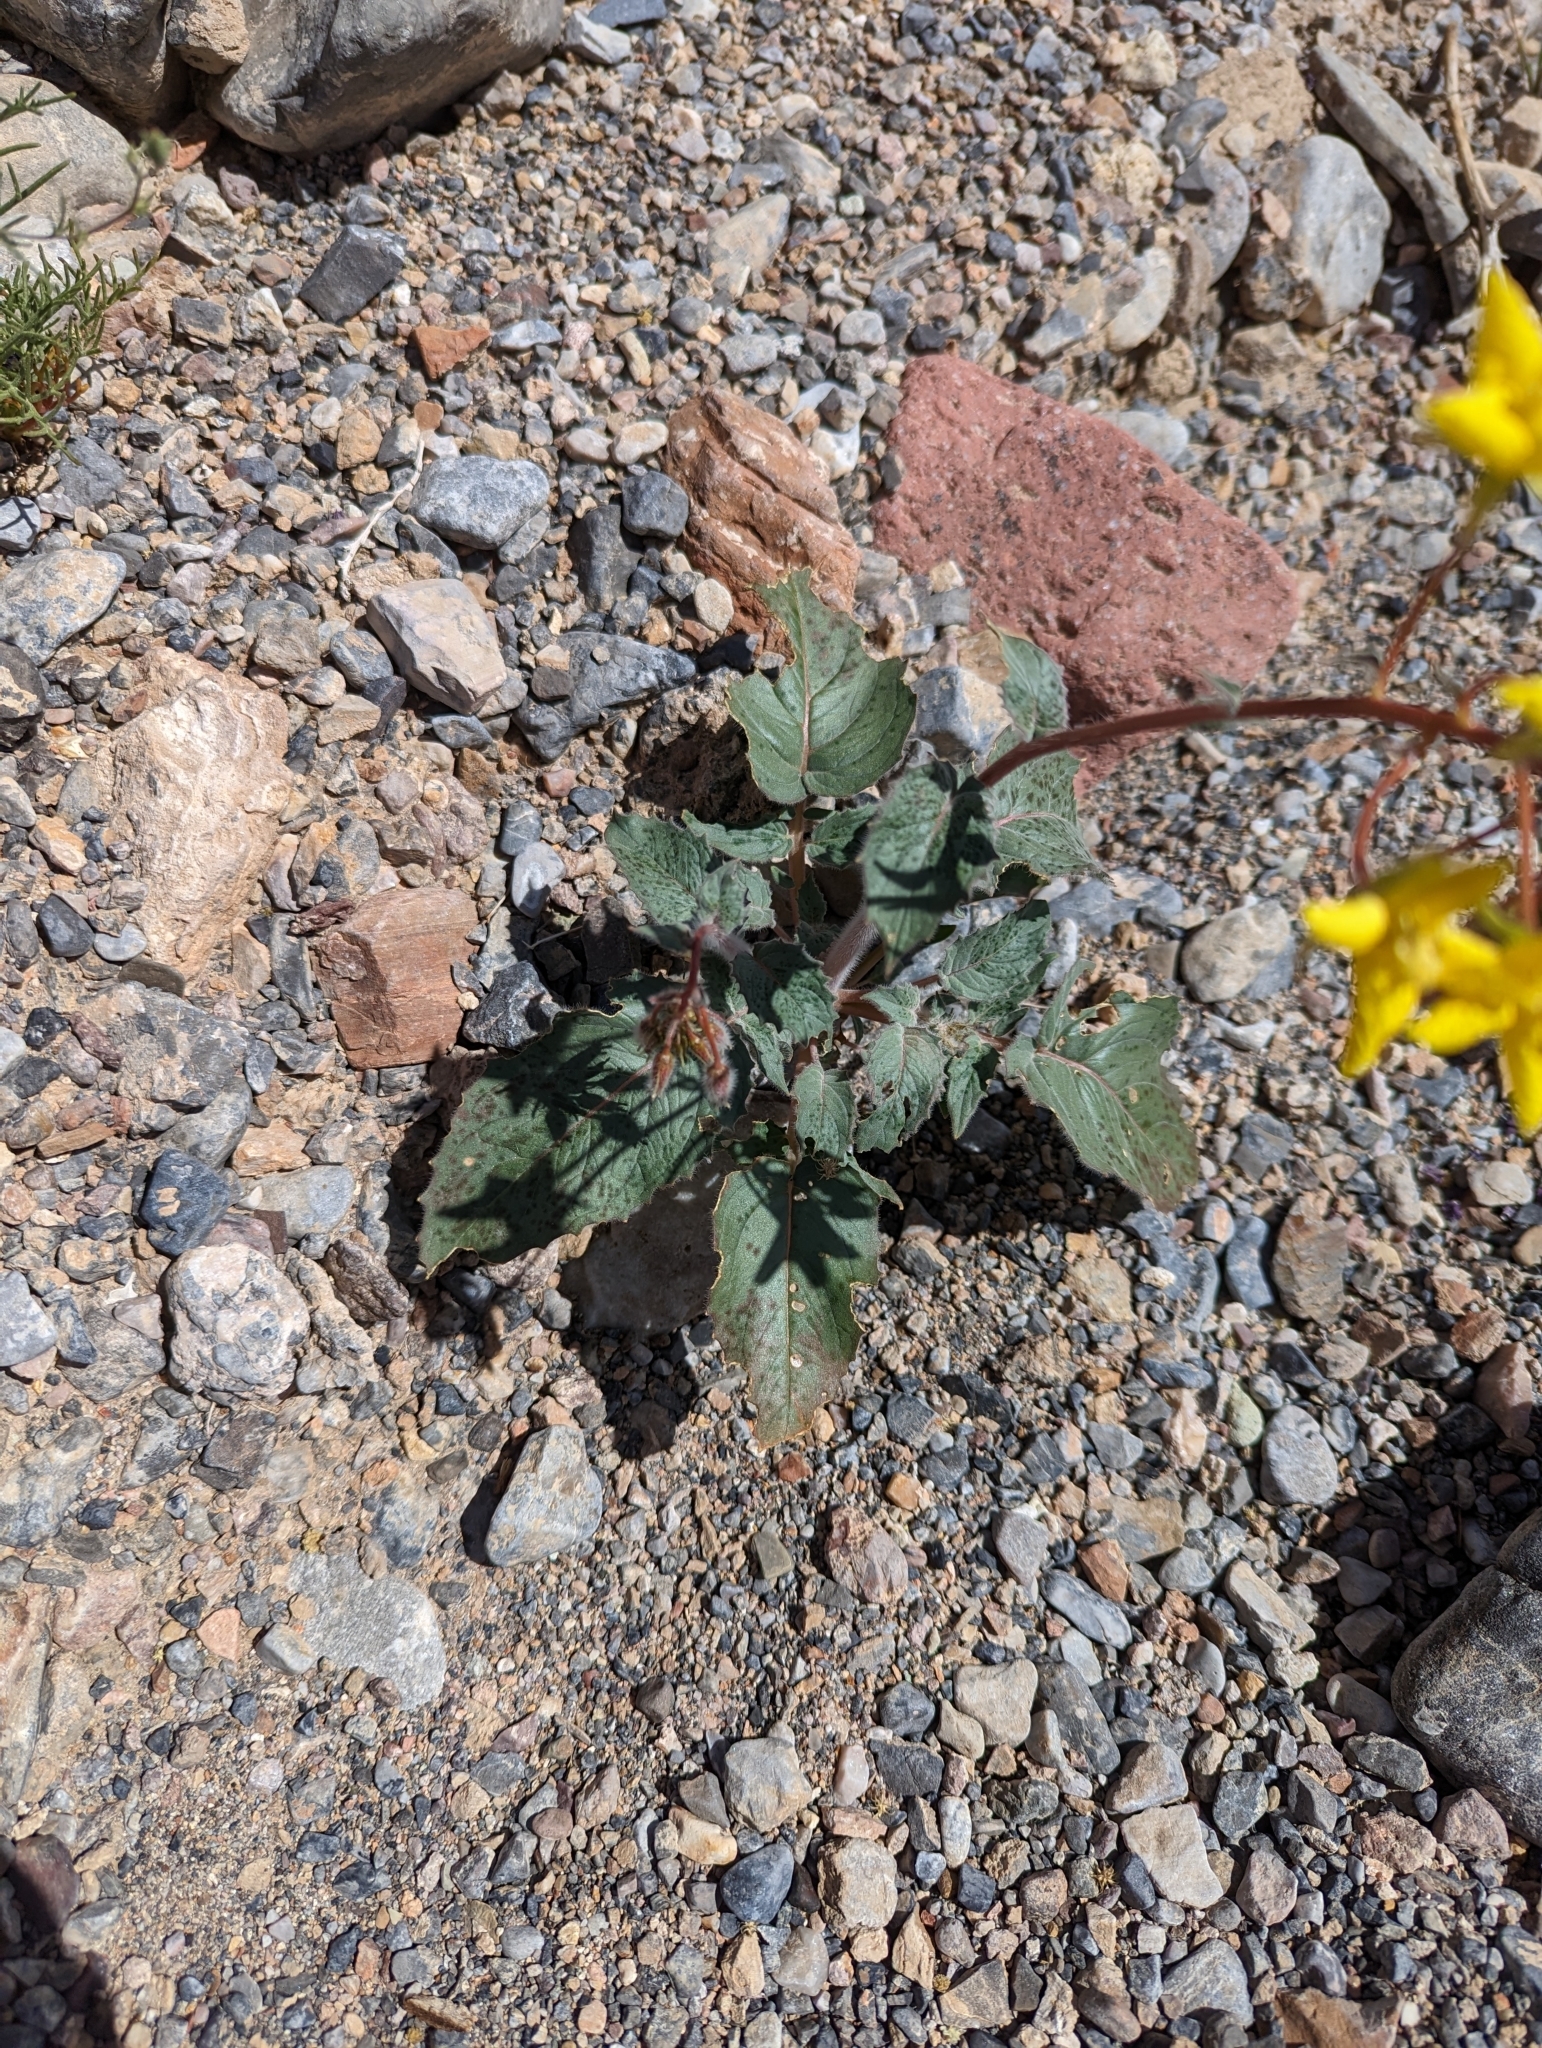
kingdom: Plantae
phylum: Tracheophyta
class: Magnoliopsida
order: Myrtales
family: Onagraceae
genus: Chylismia
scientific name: Chylismia brevipes
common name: Yellow cups
